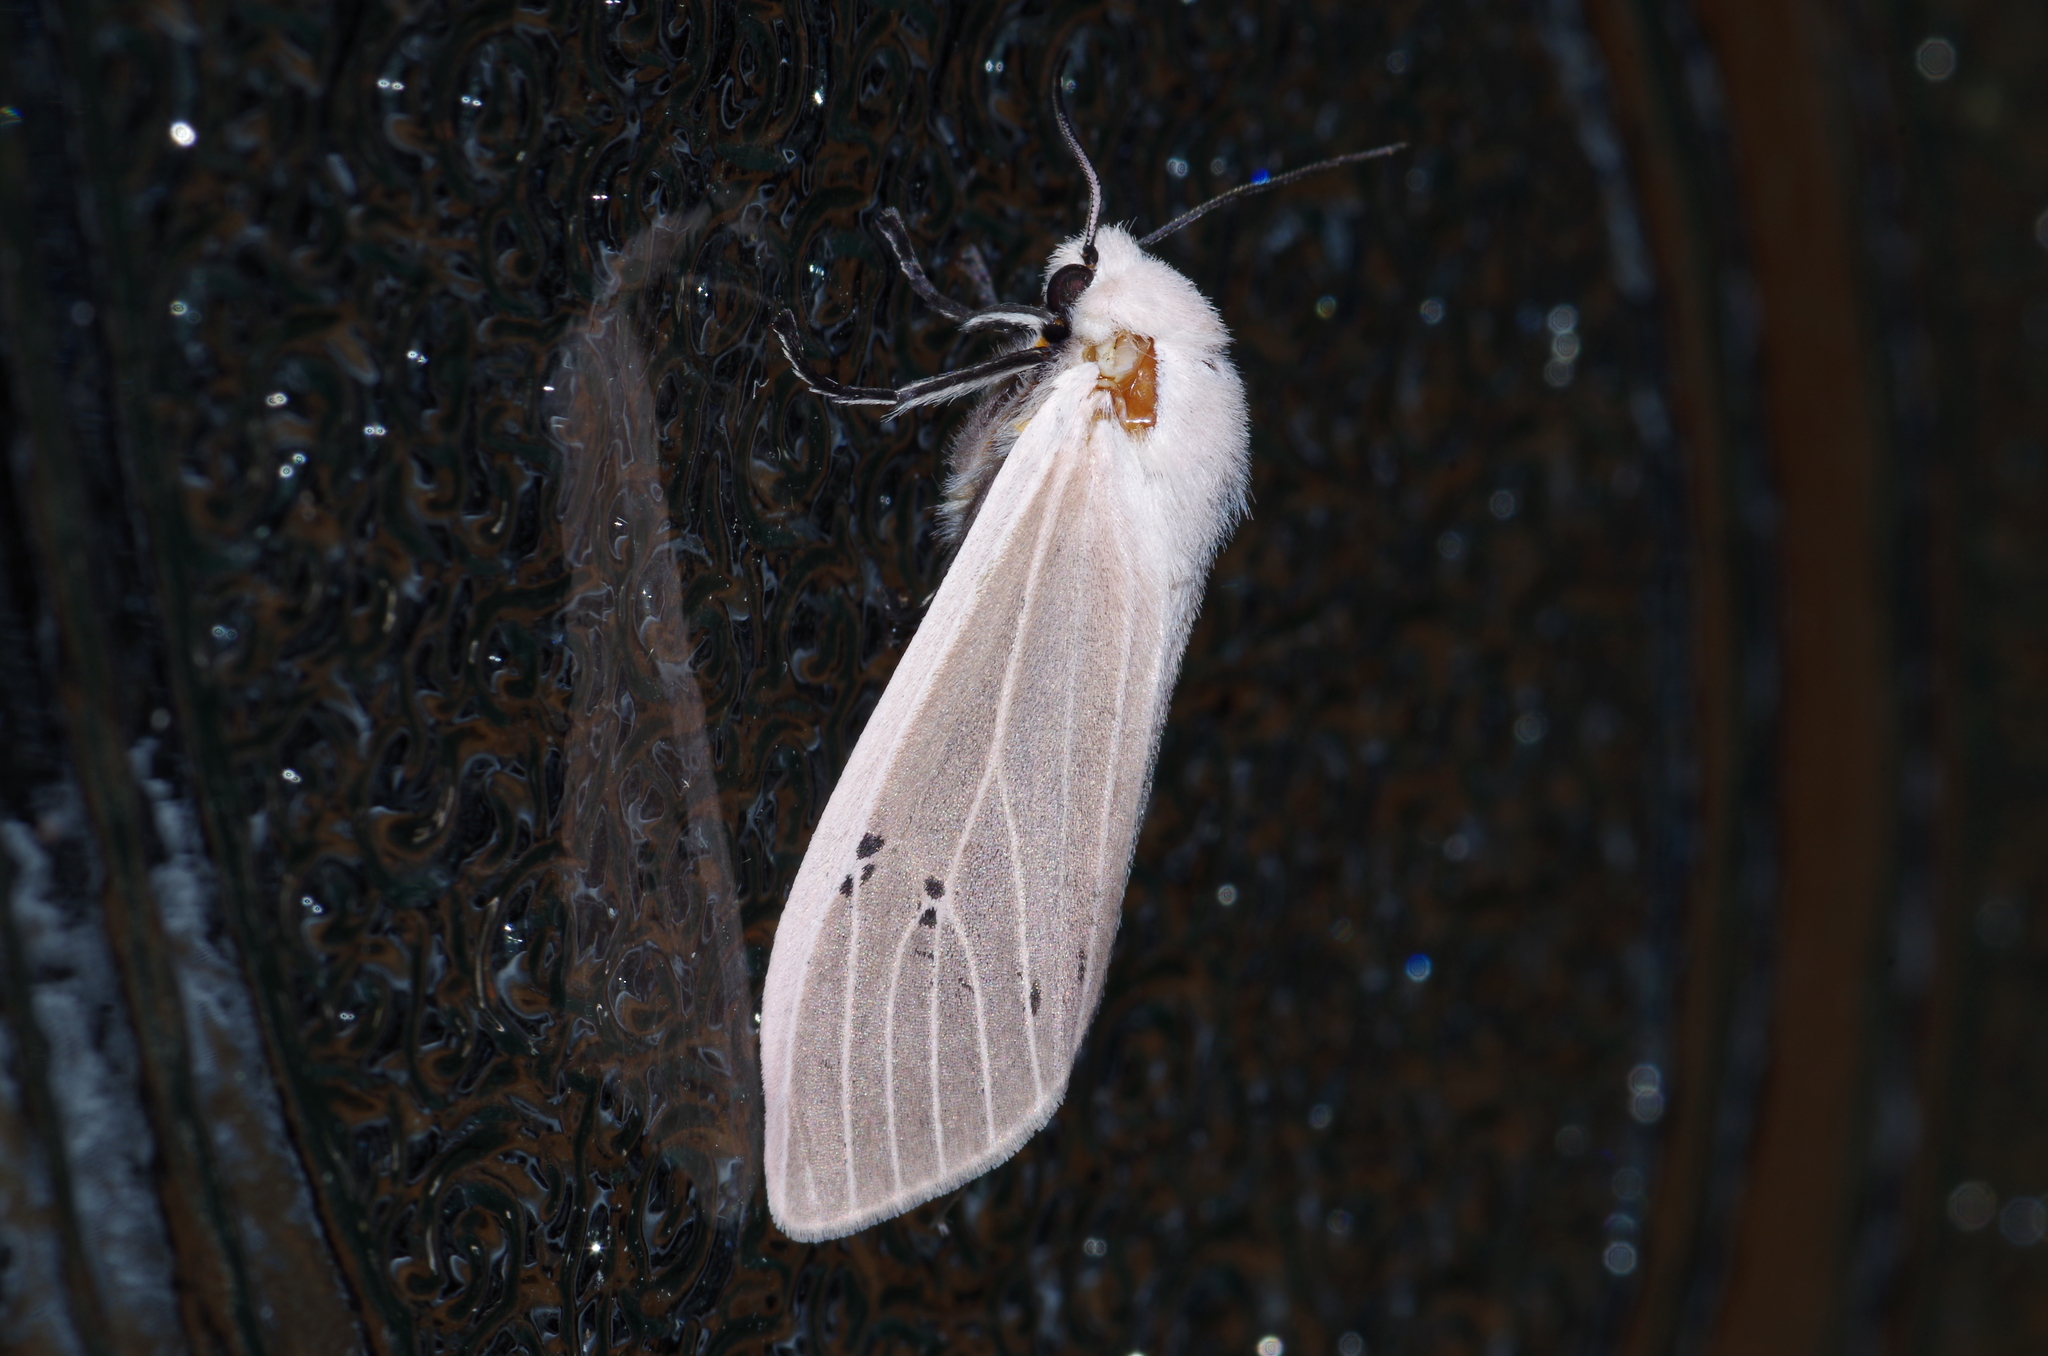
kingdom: Animalia
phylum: Arthropoda
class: Insecta
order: Lepidoptera
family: Erebidae
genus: Creatonotos
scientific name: Creatonotos transiens
